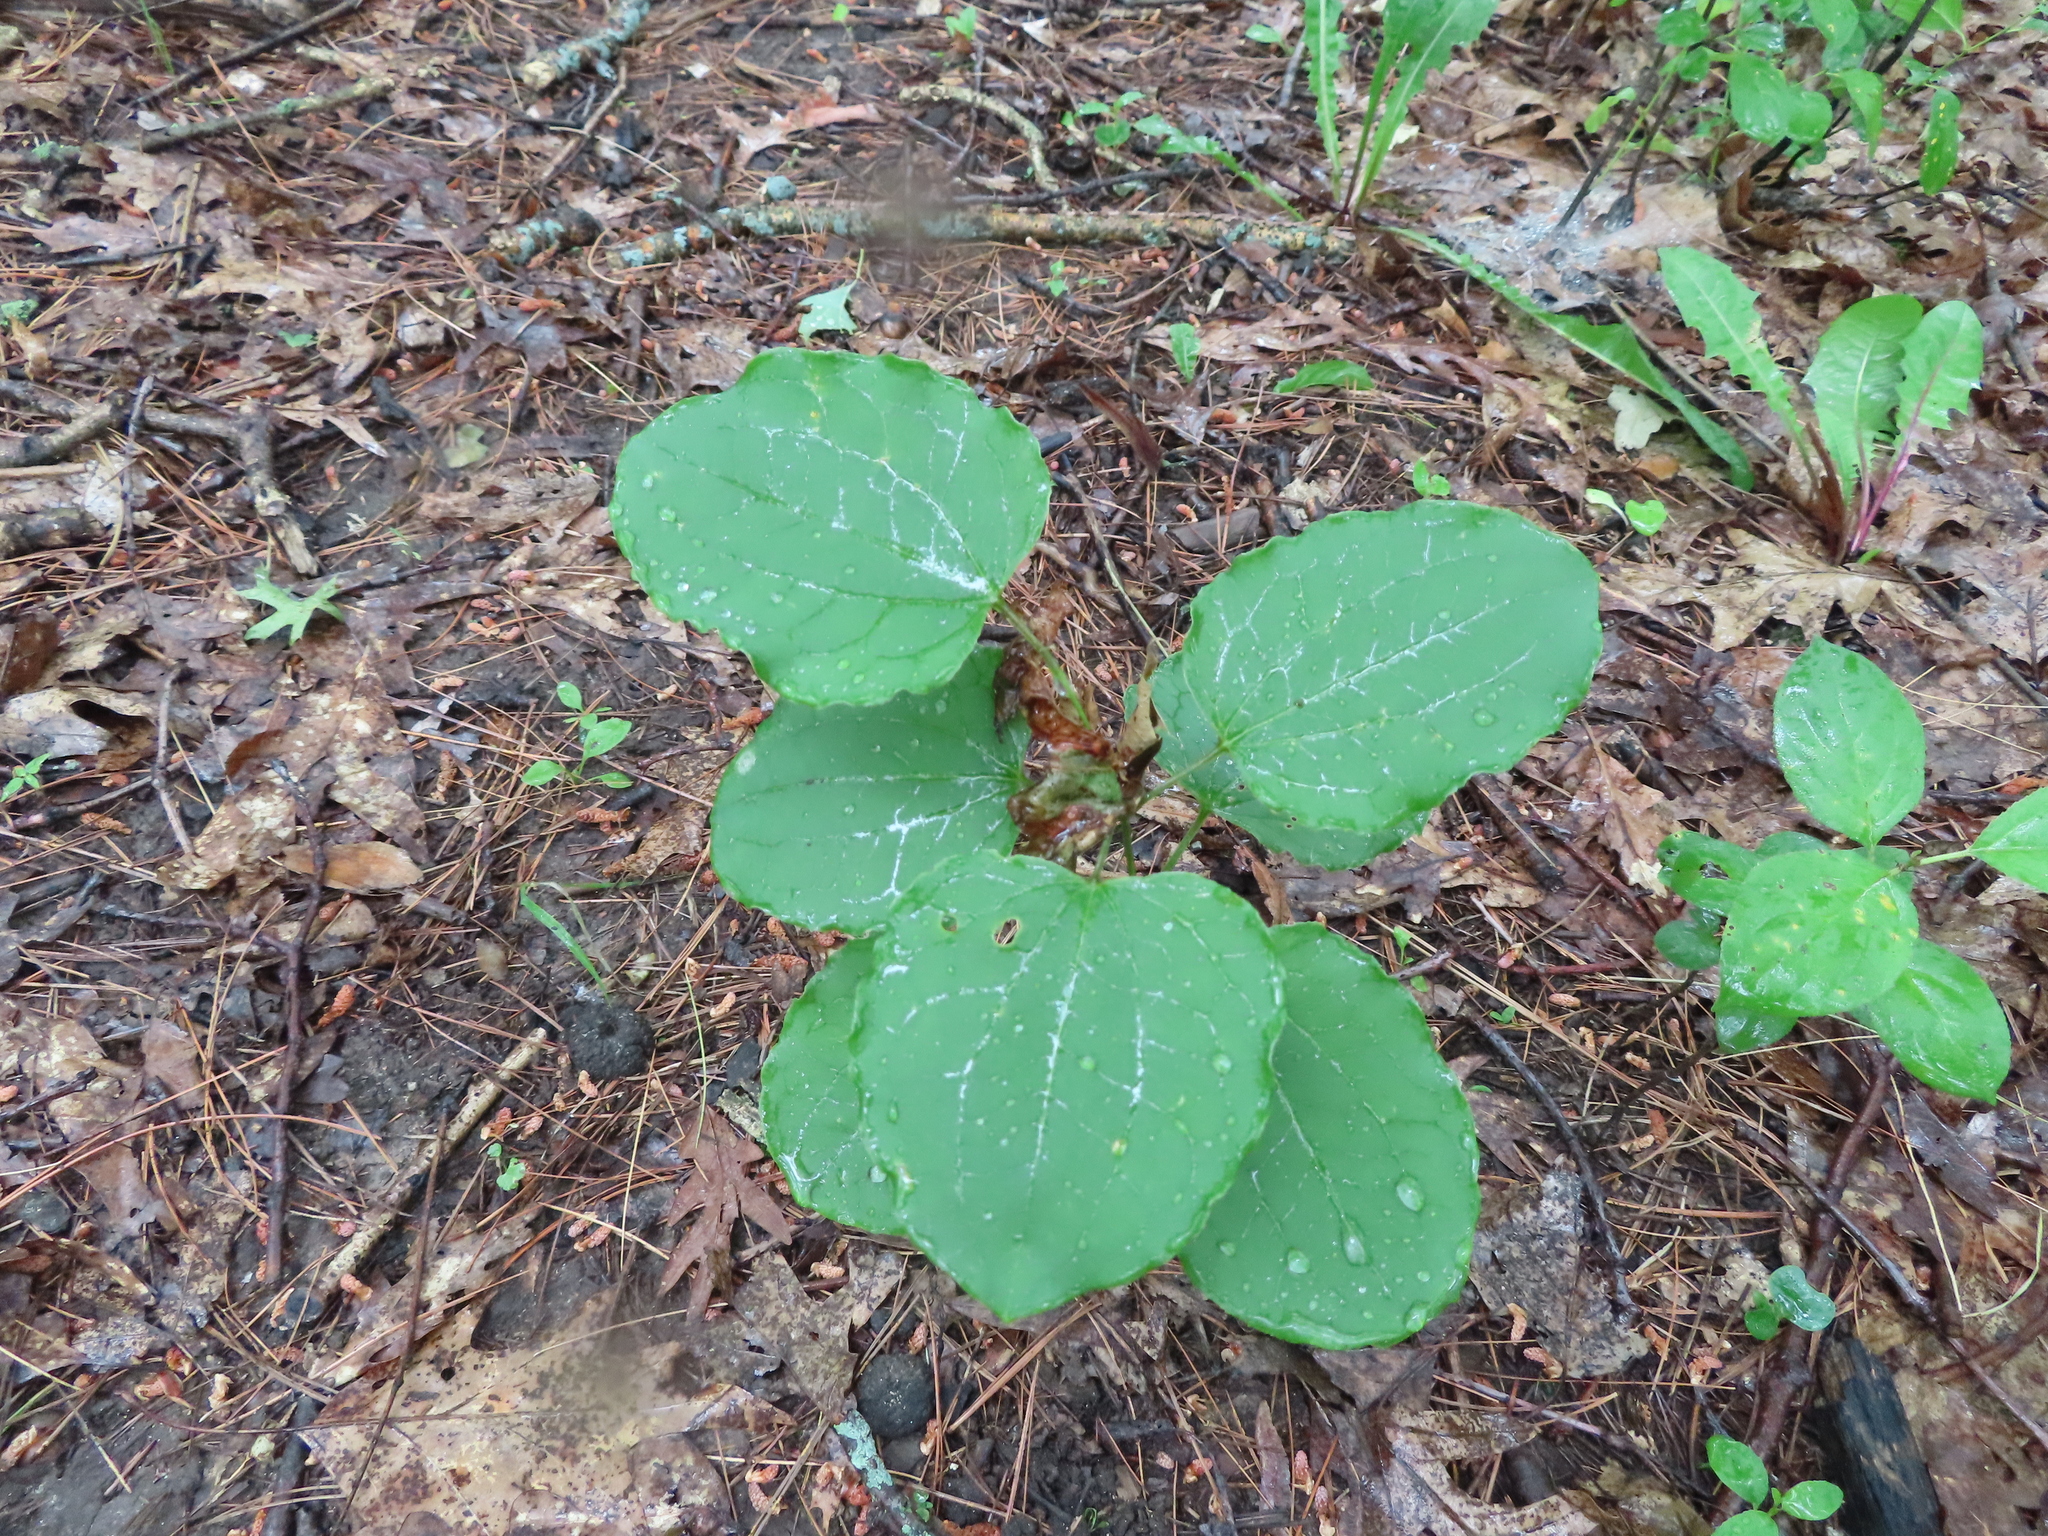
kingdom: Plantae
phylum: Tracheophyta
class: Liliopsida
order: Liliales
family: Smilacaceae
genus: Smilax
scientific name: Smilax ecirrhata
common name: Upright carrionflower
